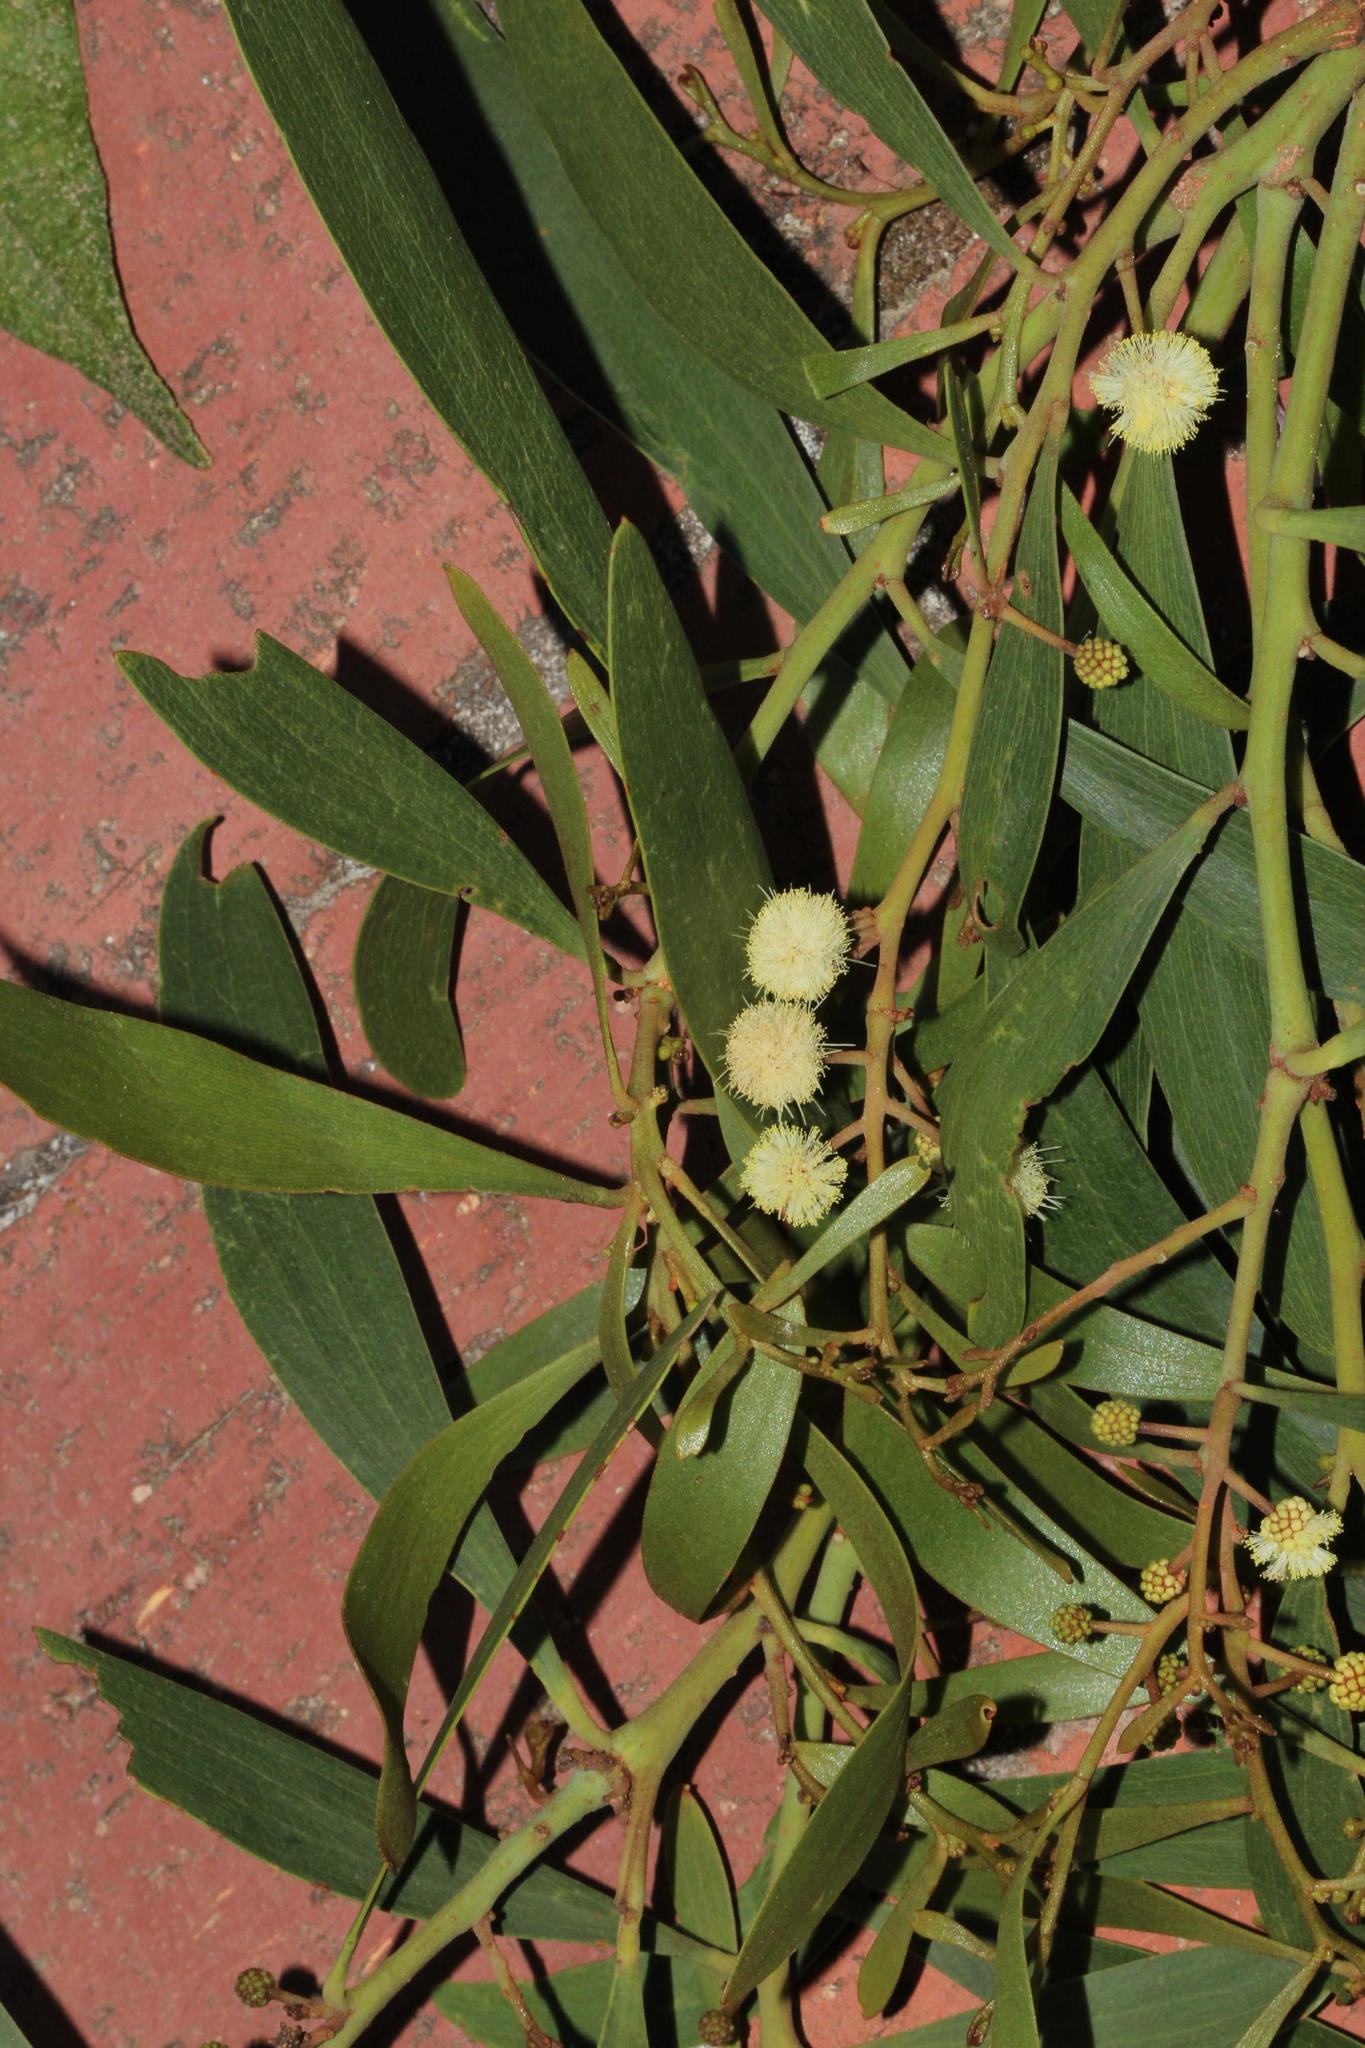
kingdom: Plantae
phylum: Tracheophyta
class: Magnoliopsida
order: Fabales
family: Fabaceae
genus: Acacia
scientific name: Acacia melanoxylon
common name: Blackwood
